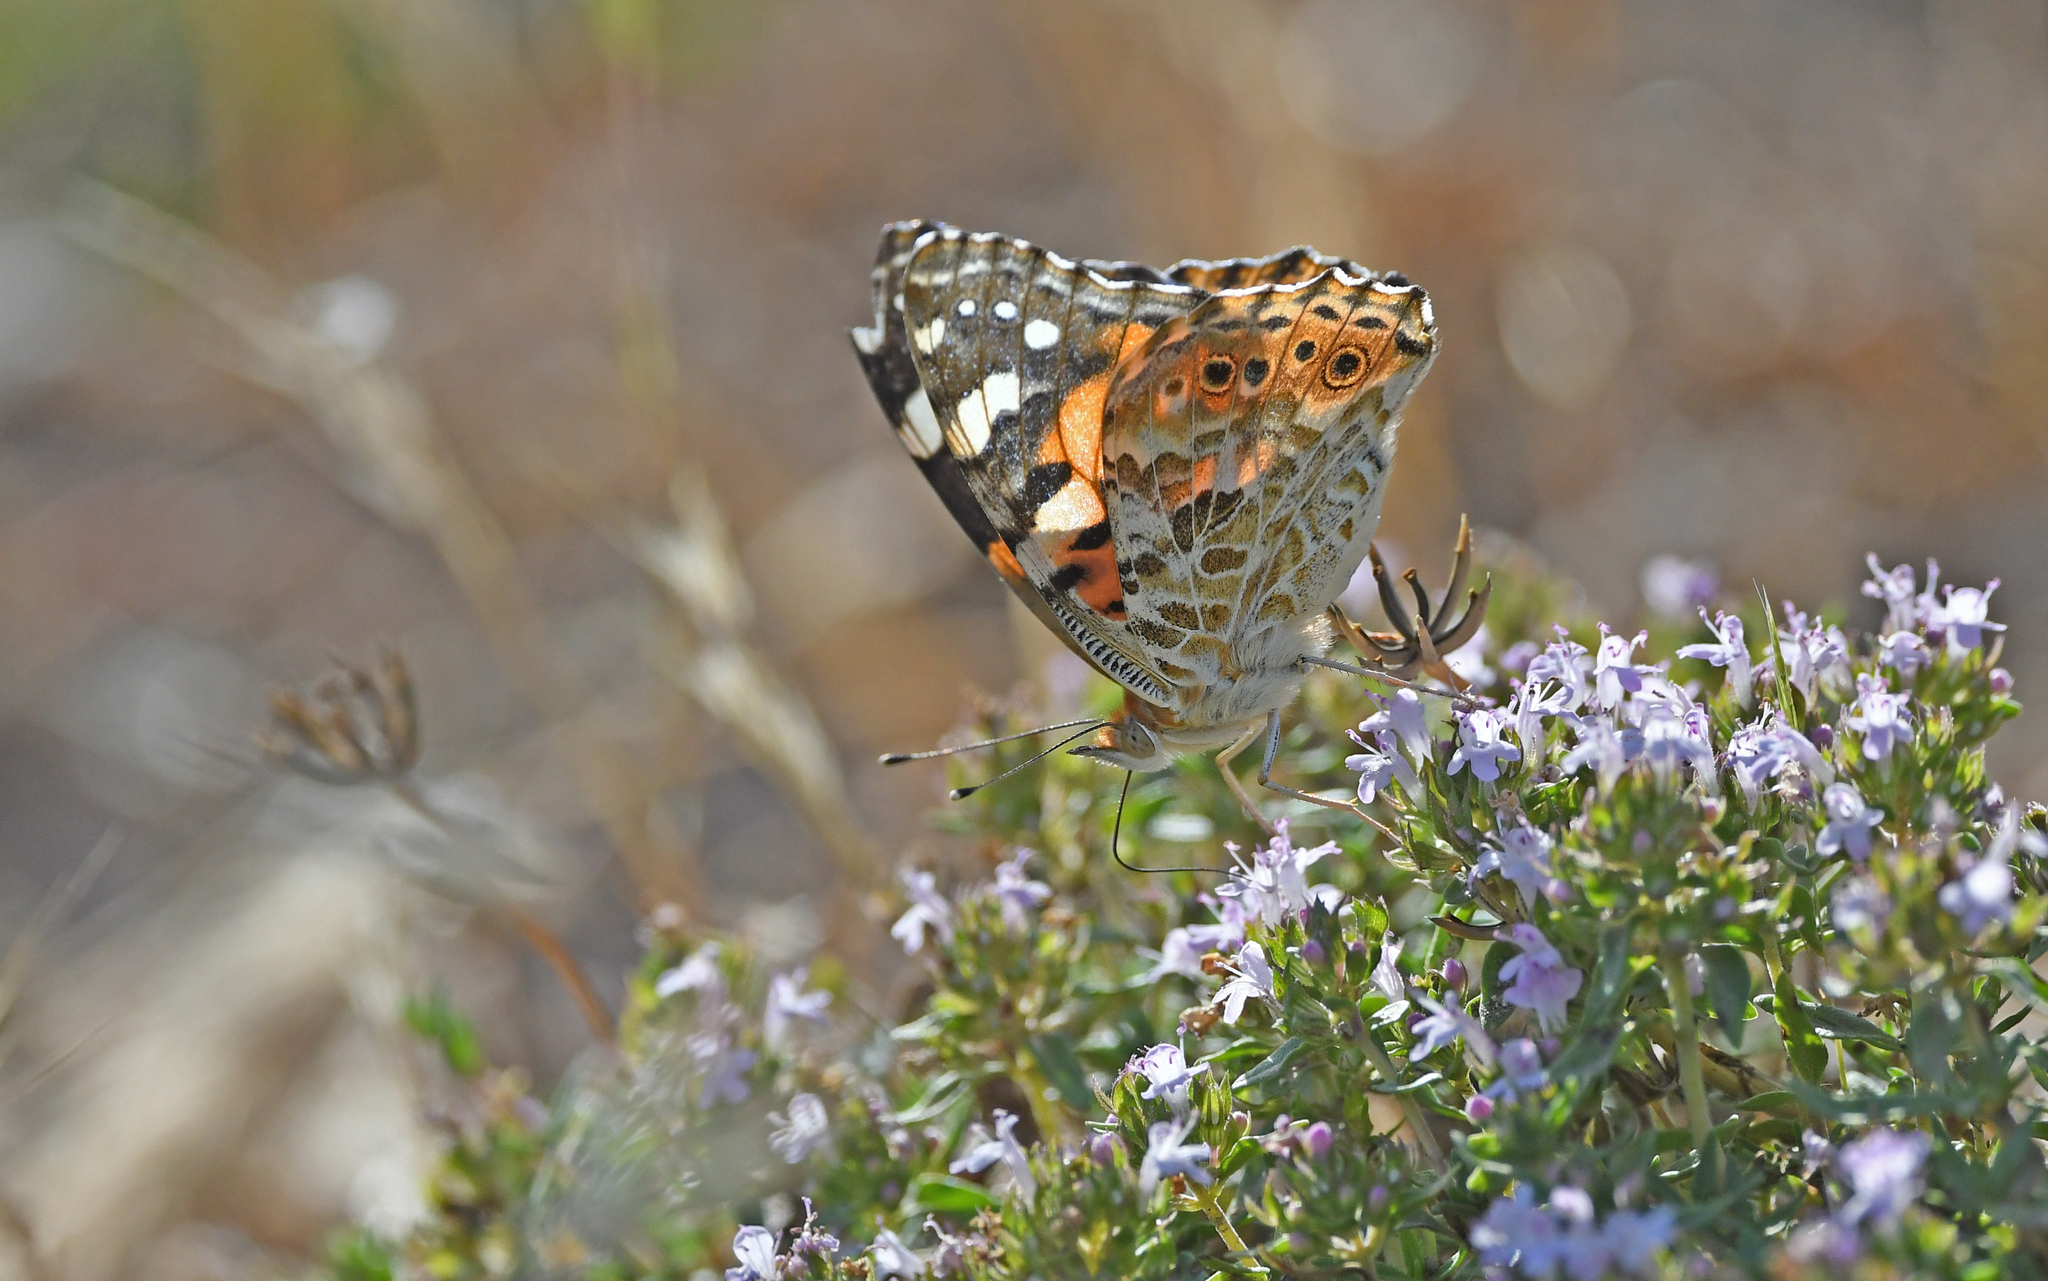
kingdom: Animalia
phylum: Arthropoda
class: Insecta
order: Lepidoptera
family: Nymphalidae
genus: Vanessa
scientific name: Vanessa cardui
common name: Painted lady
